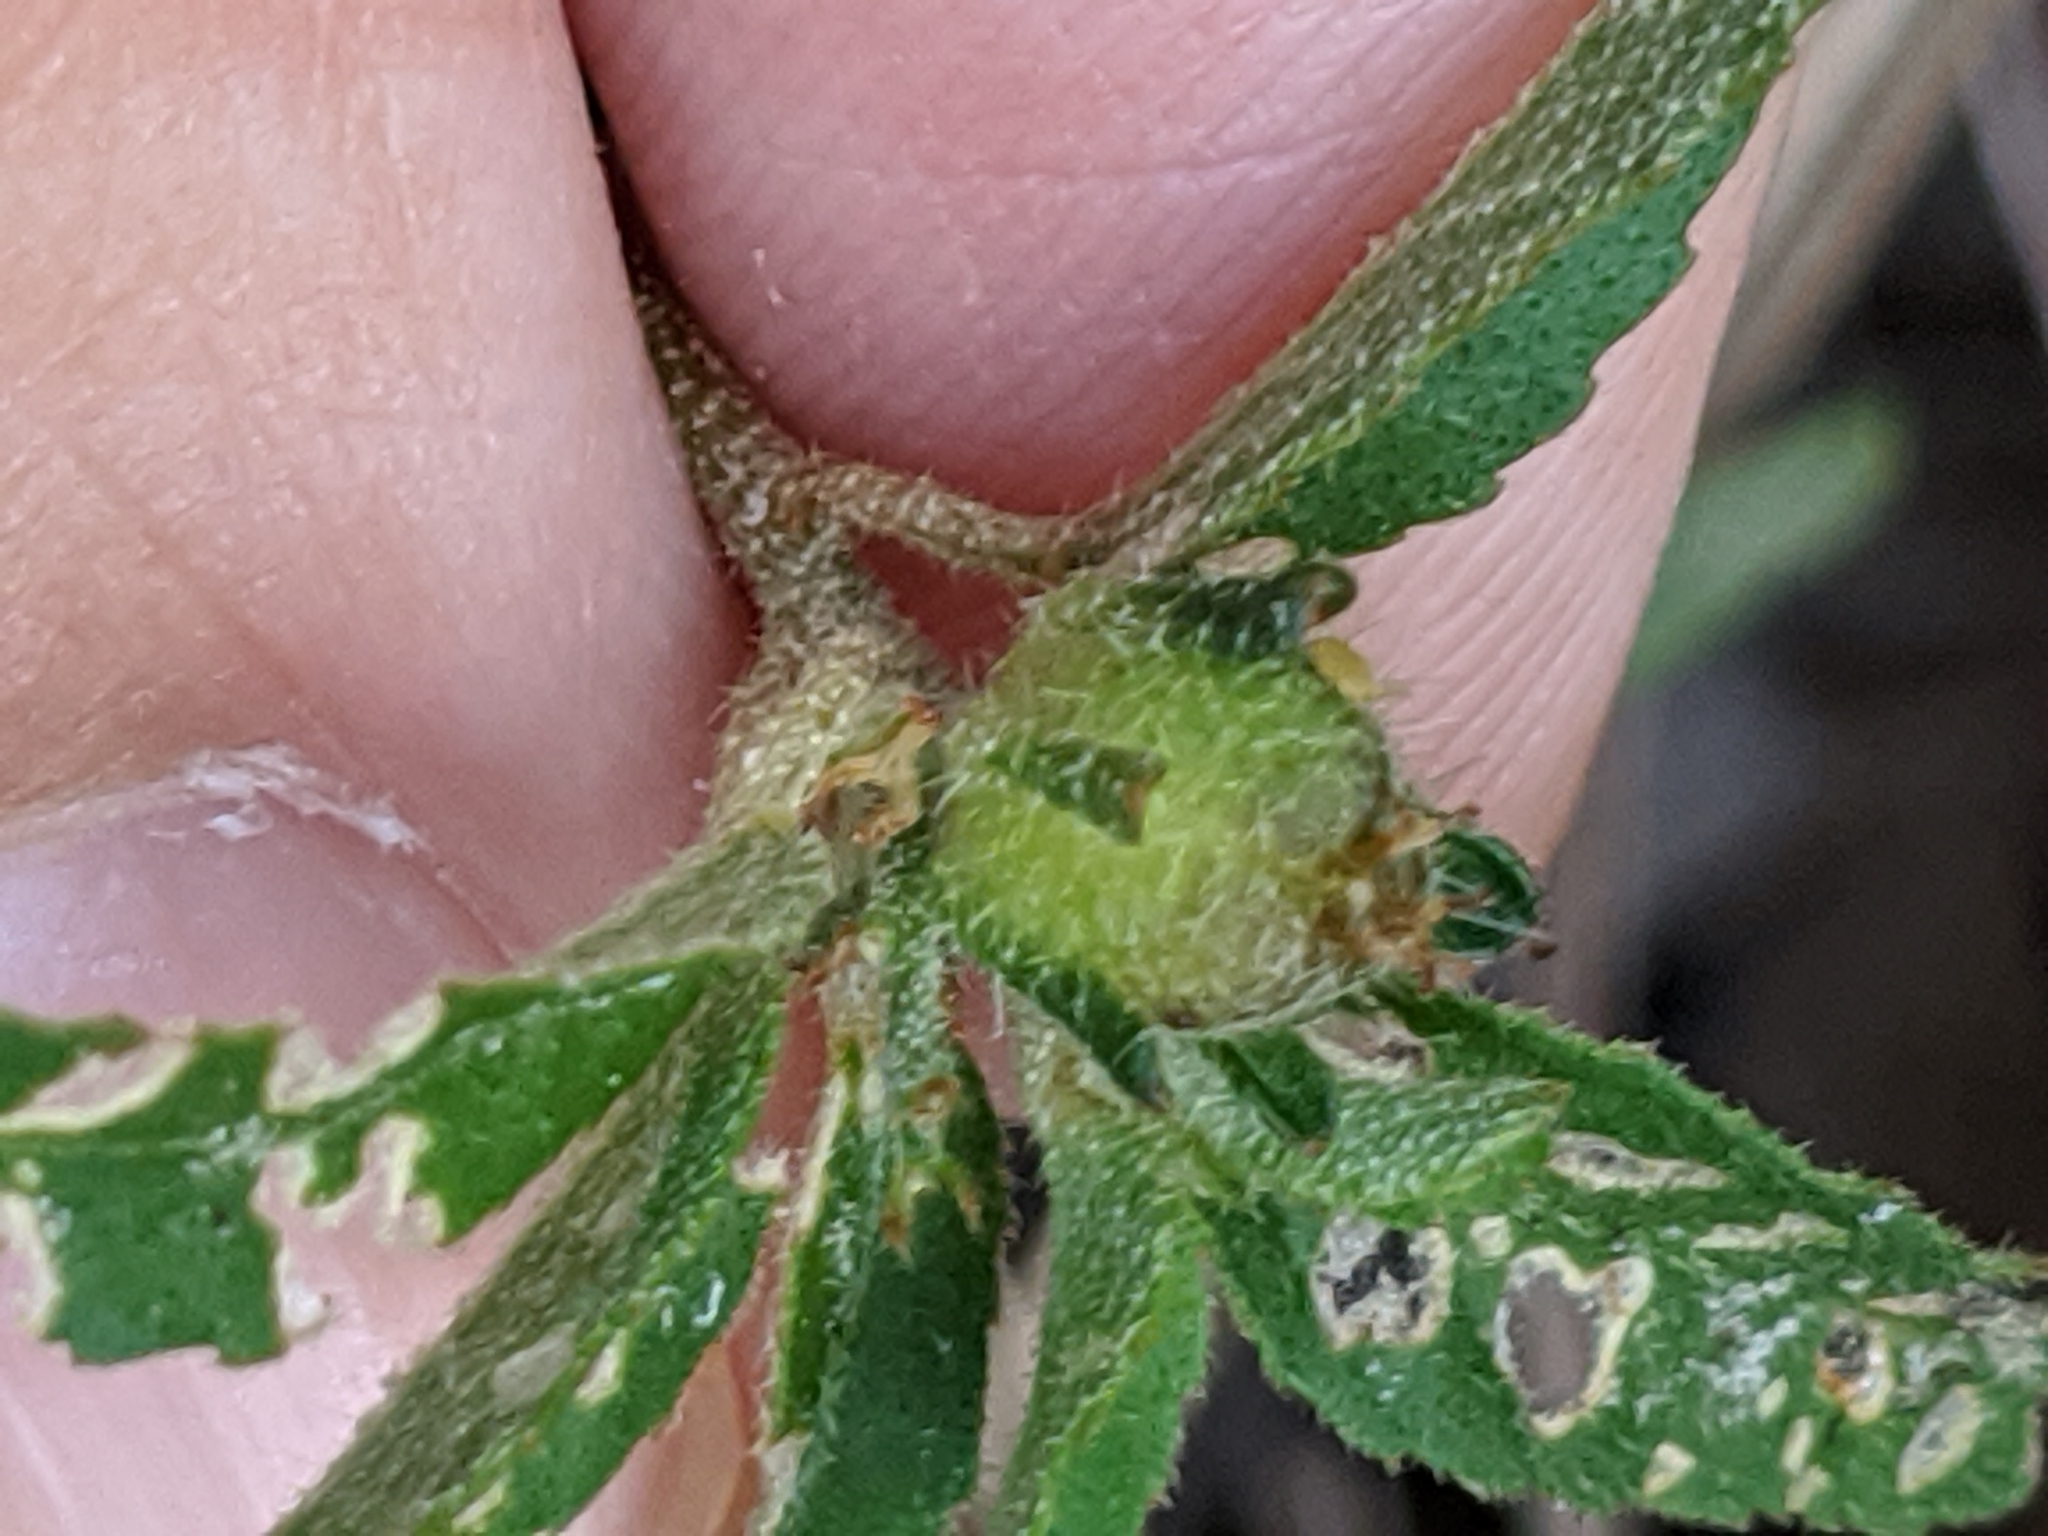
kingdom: Plantae
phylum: Tracheophyta
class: Magnoliopsida
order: Malpighiales
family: Euphorbiaceae
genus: Croton
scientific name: Croton glandulosus
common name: Tropic croton
